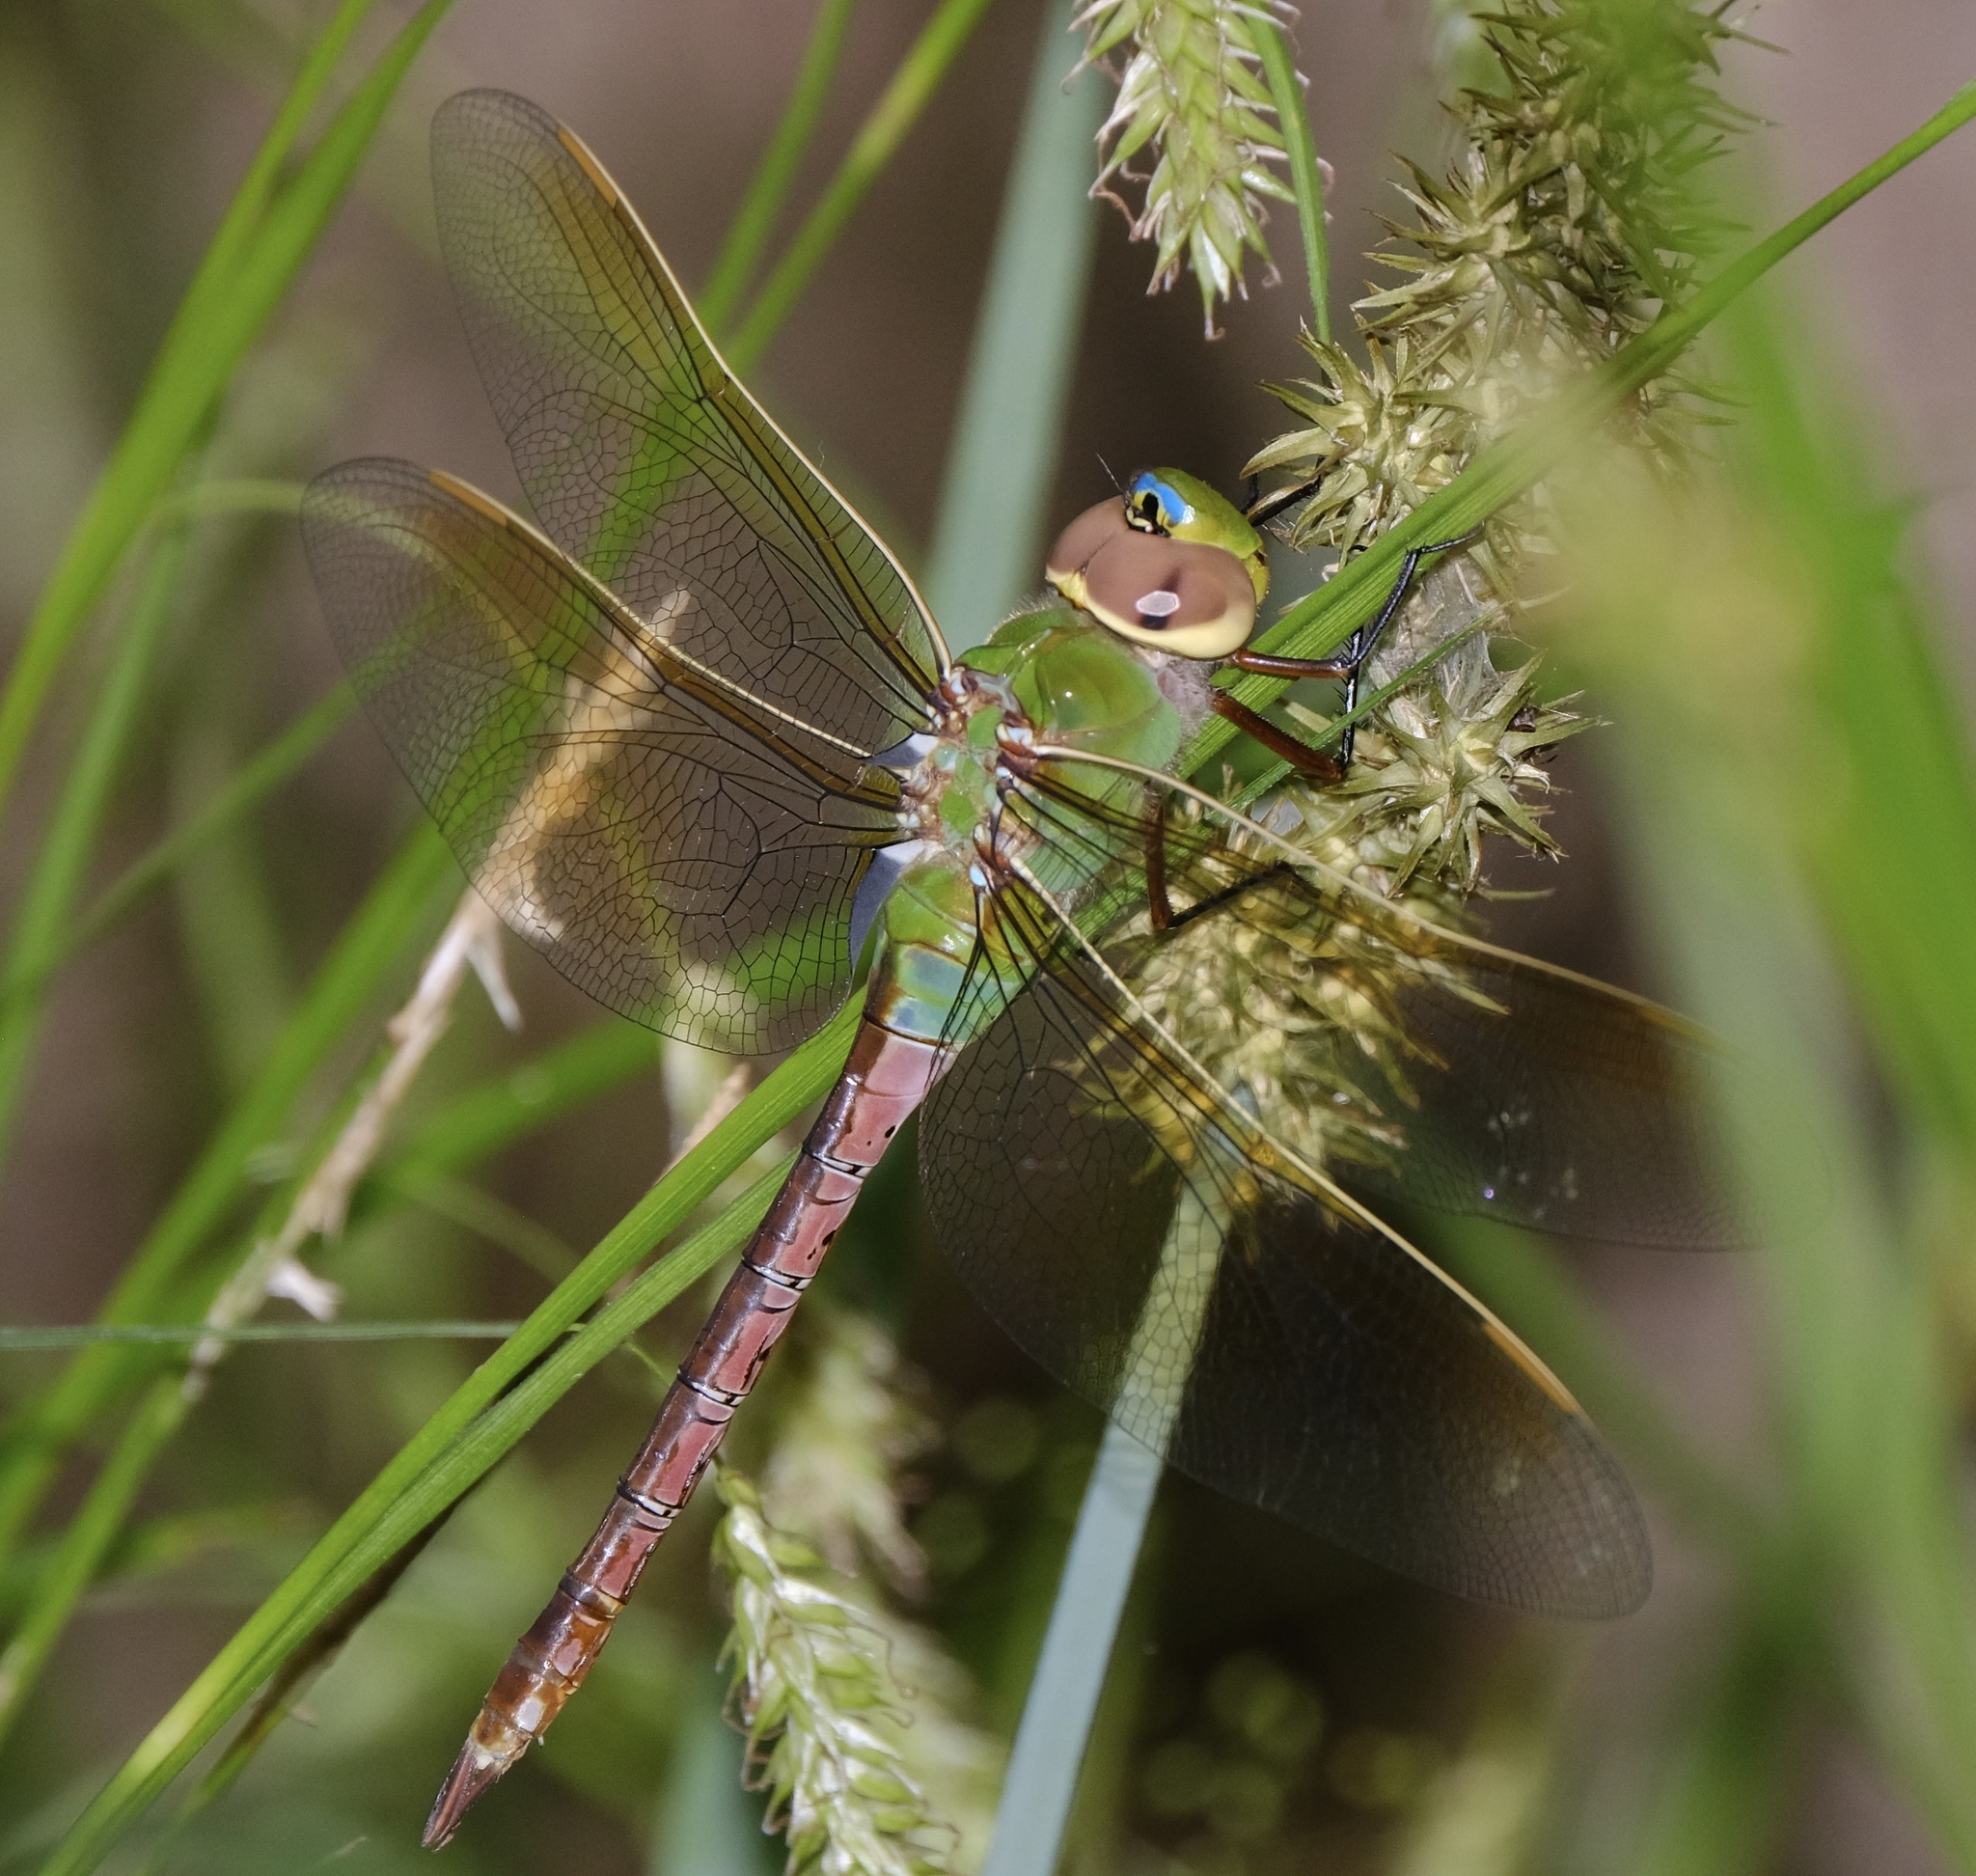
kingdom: Animalia
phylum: Arthropoda
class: Insecta
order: Odonata
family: Aeshnidae
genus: Anax
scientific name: Anax junius
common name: Common green darner
